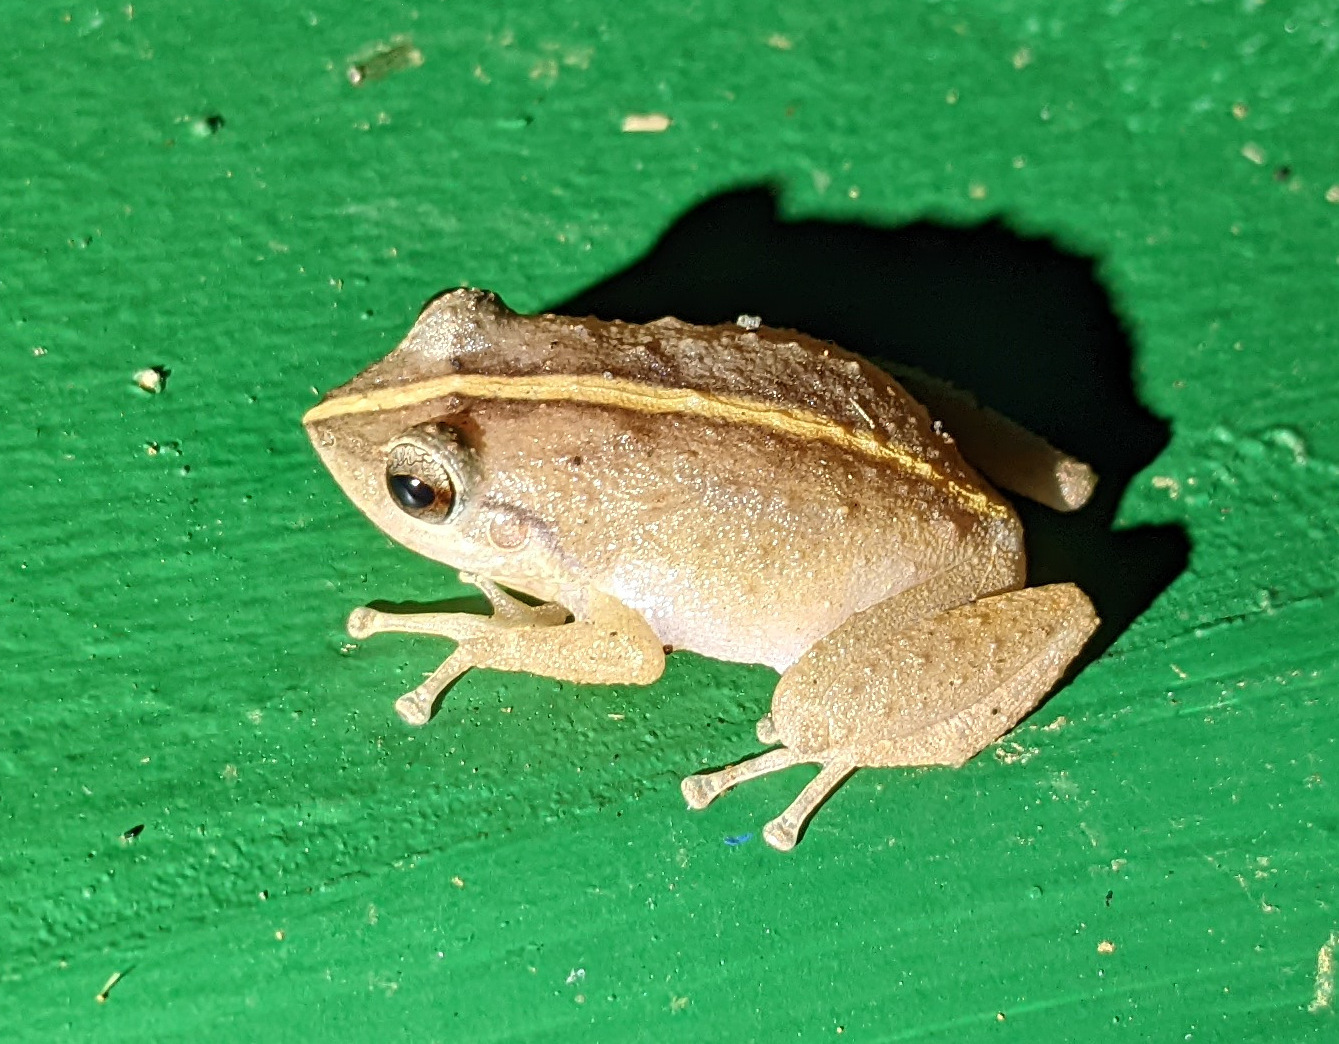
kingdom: Animalia
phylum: Chordata
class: Amphibia
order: Anura
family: Eleutherodactylidae
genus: Eleutherodactylus
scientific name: Eleutherodactylus coqui
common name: Coqui frog
